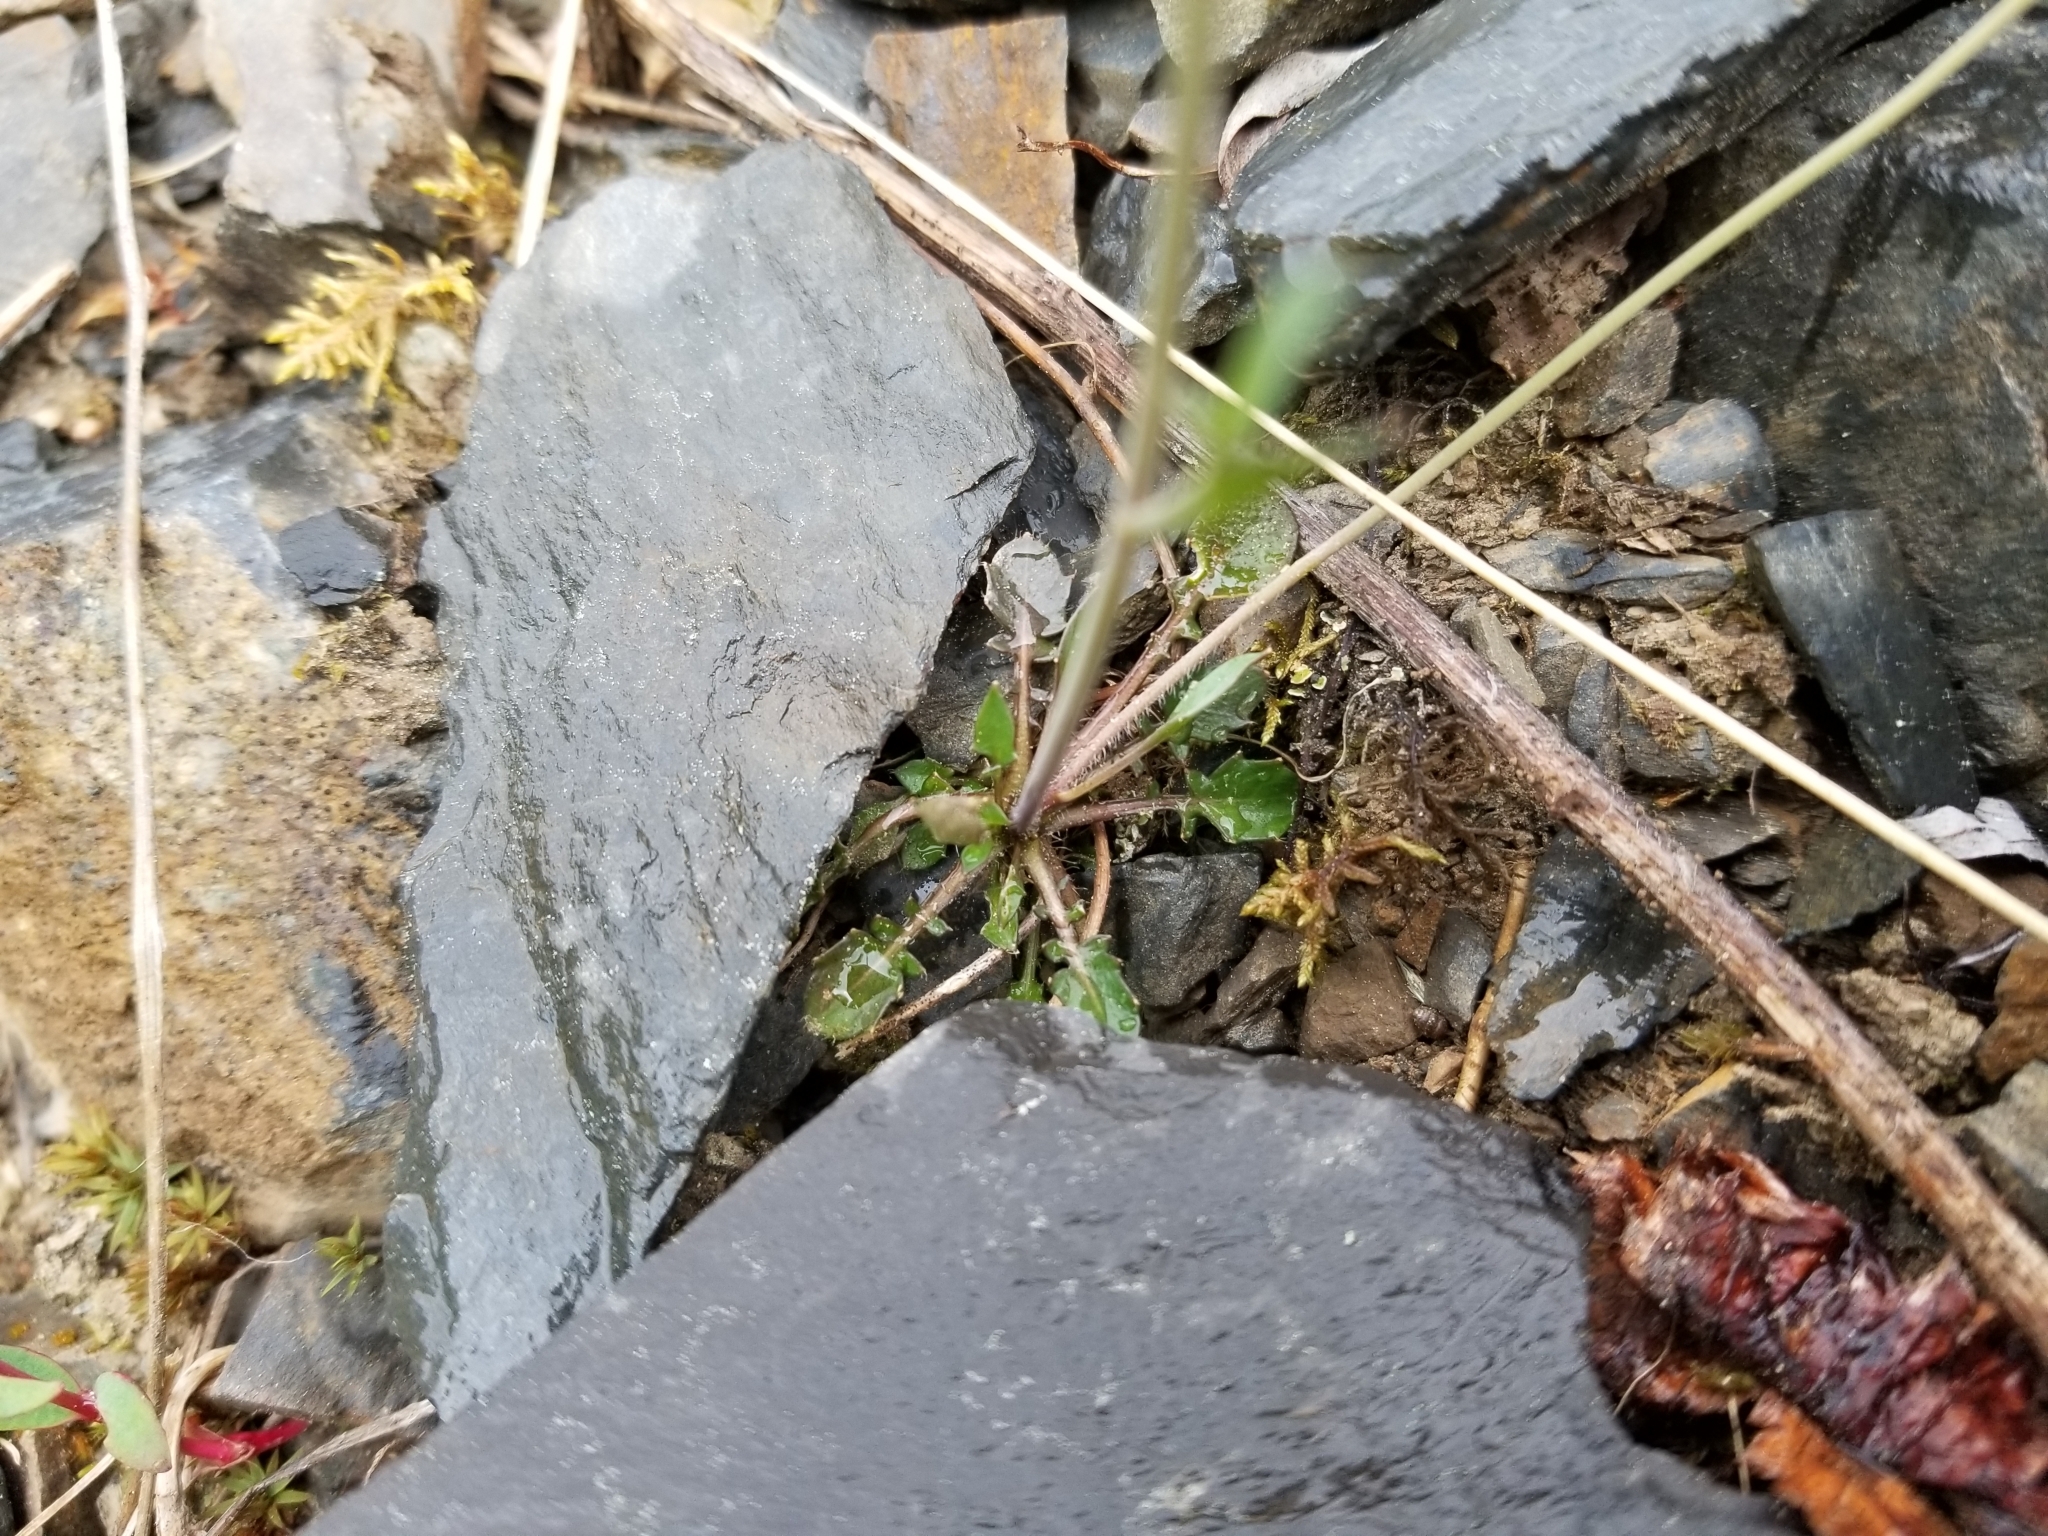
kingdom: Plantae
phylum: Tracheophyta
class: Magnoliopsida
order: Brassicales
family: Brassicaceae
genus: Arabidopsis
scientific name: Arabidopsis lyrata
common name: Lyrate rockcress
